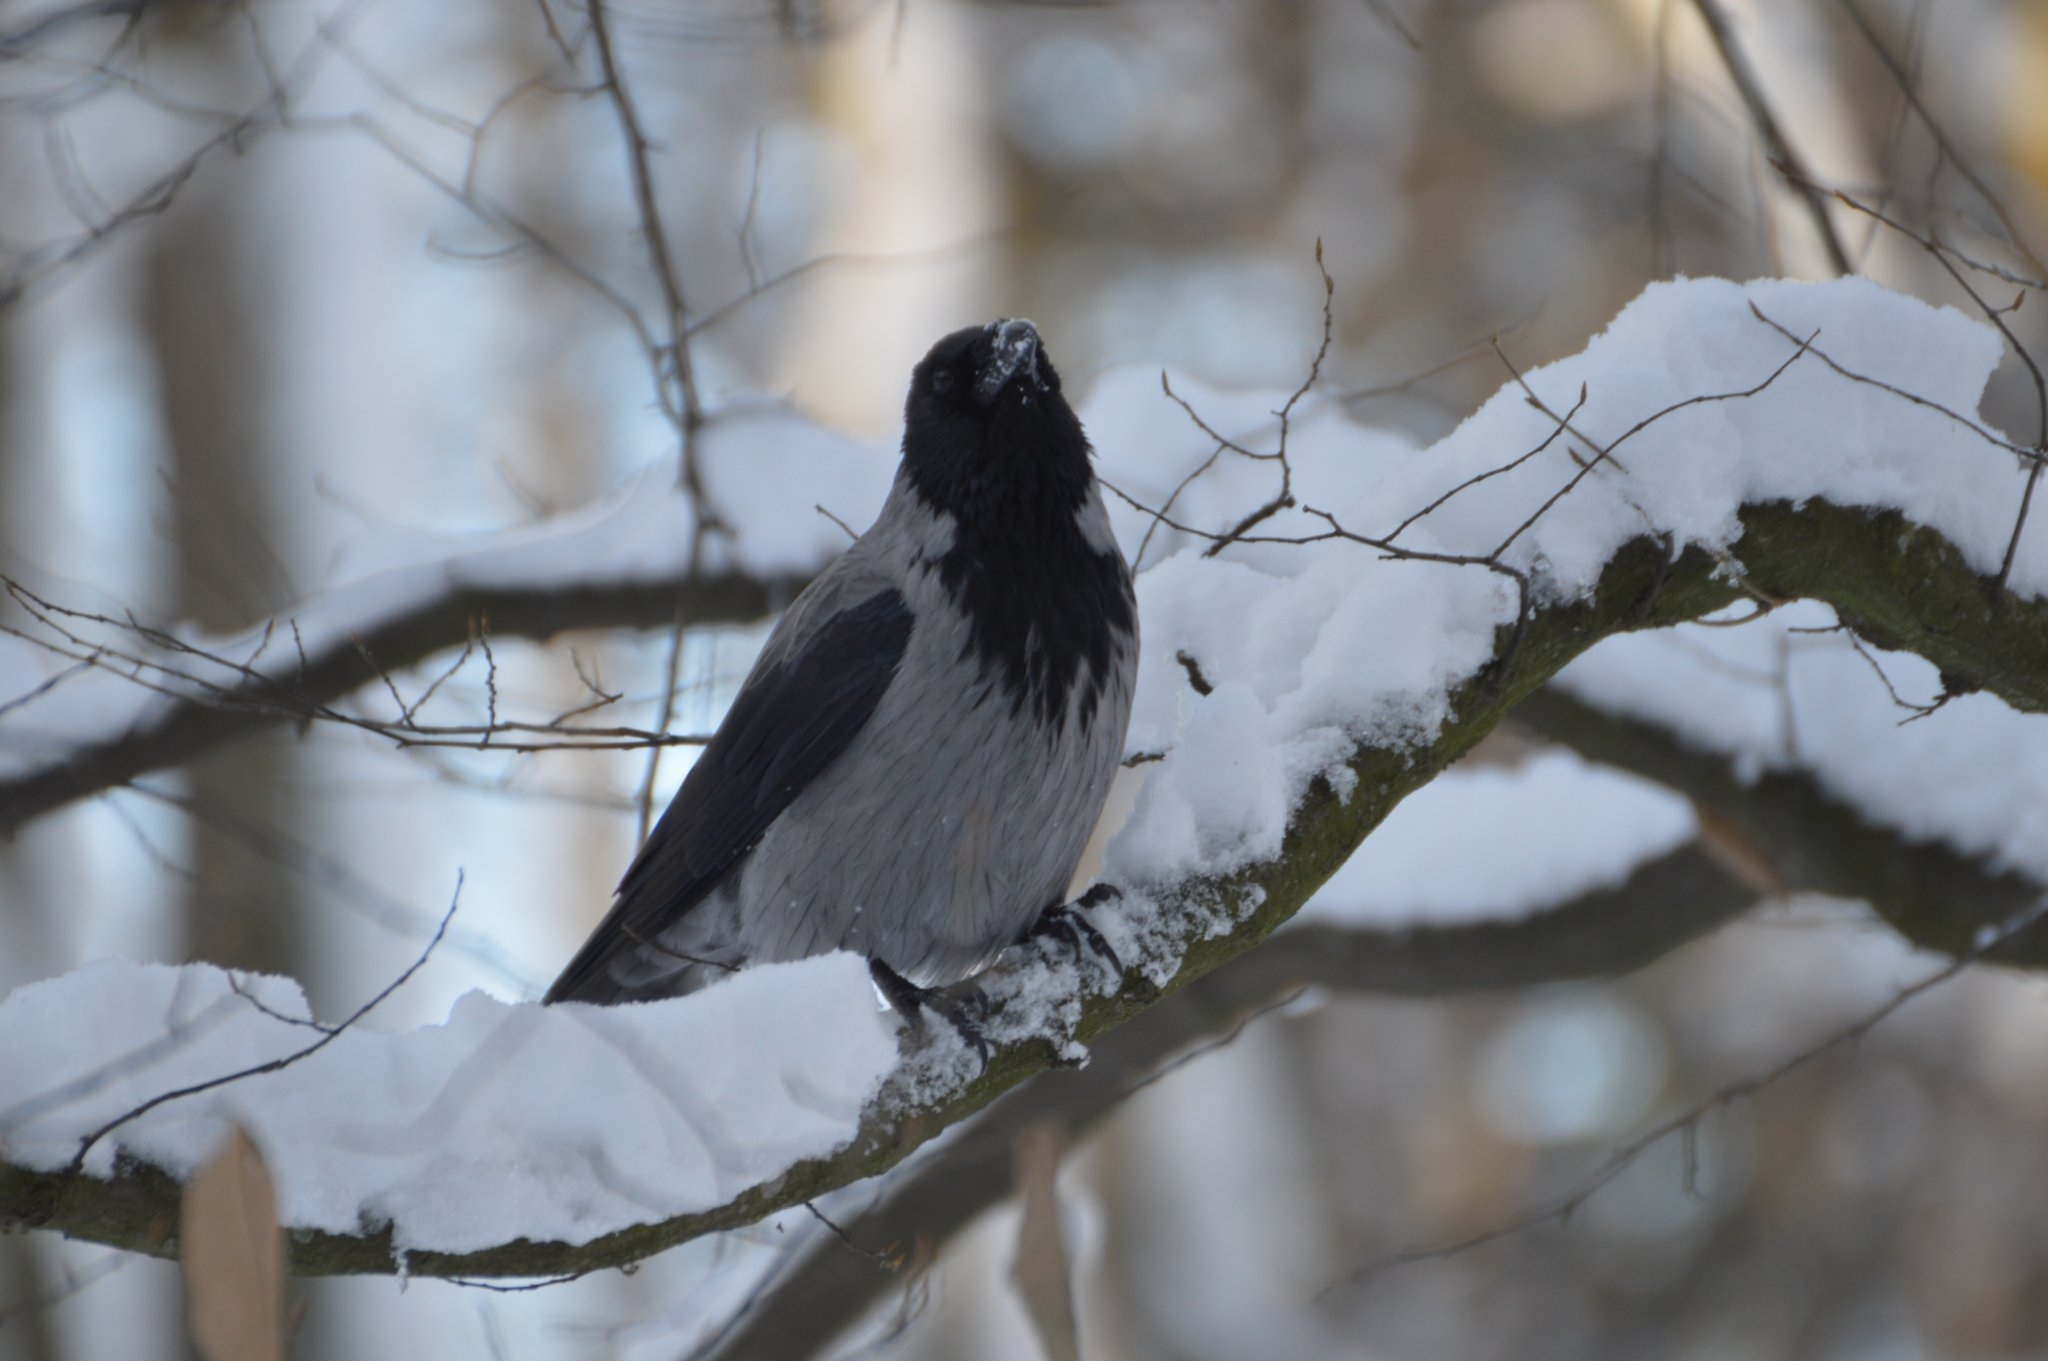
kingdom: Animalia
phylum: Chordata
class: Aves
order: Passeriformes
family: Corvidae
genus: Corvus
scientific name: Corvus cornix
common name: Hooded crow
